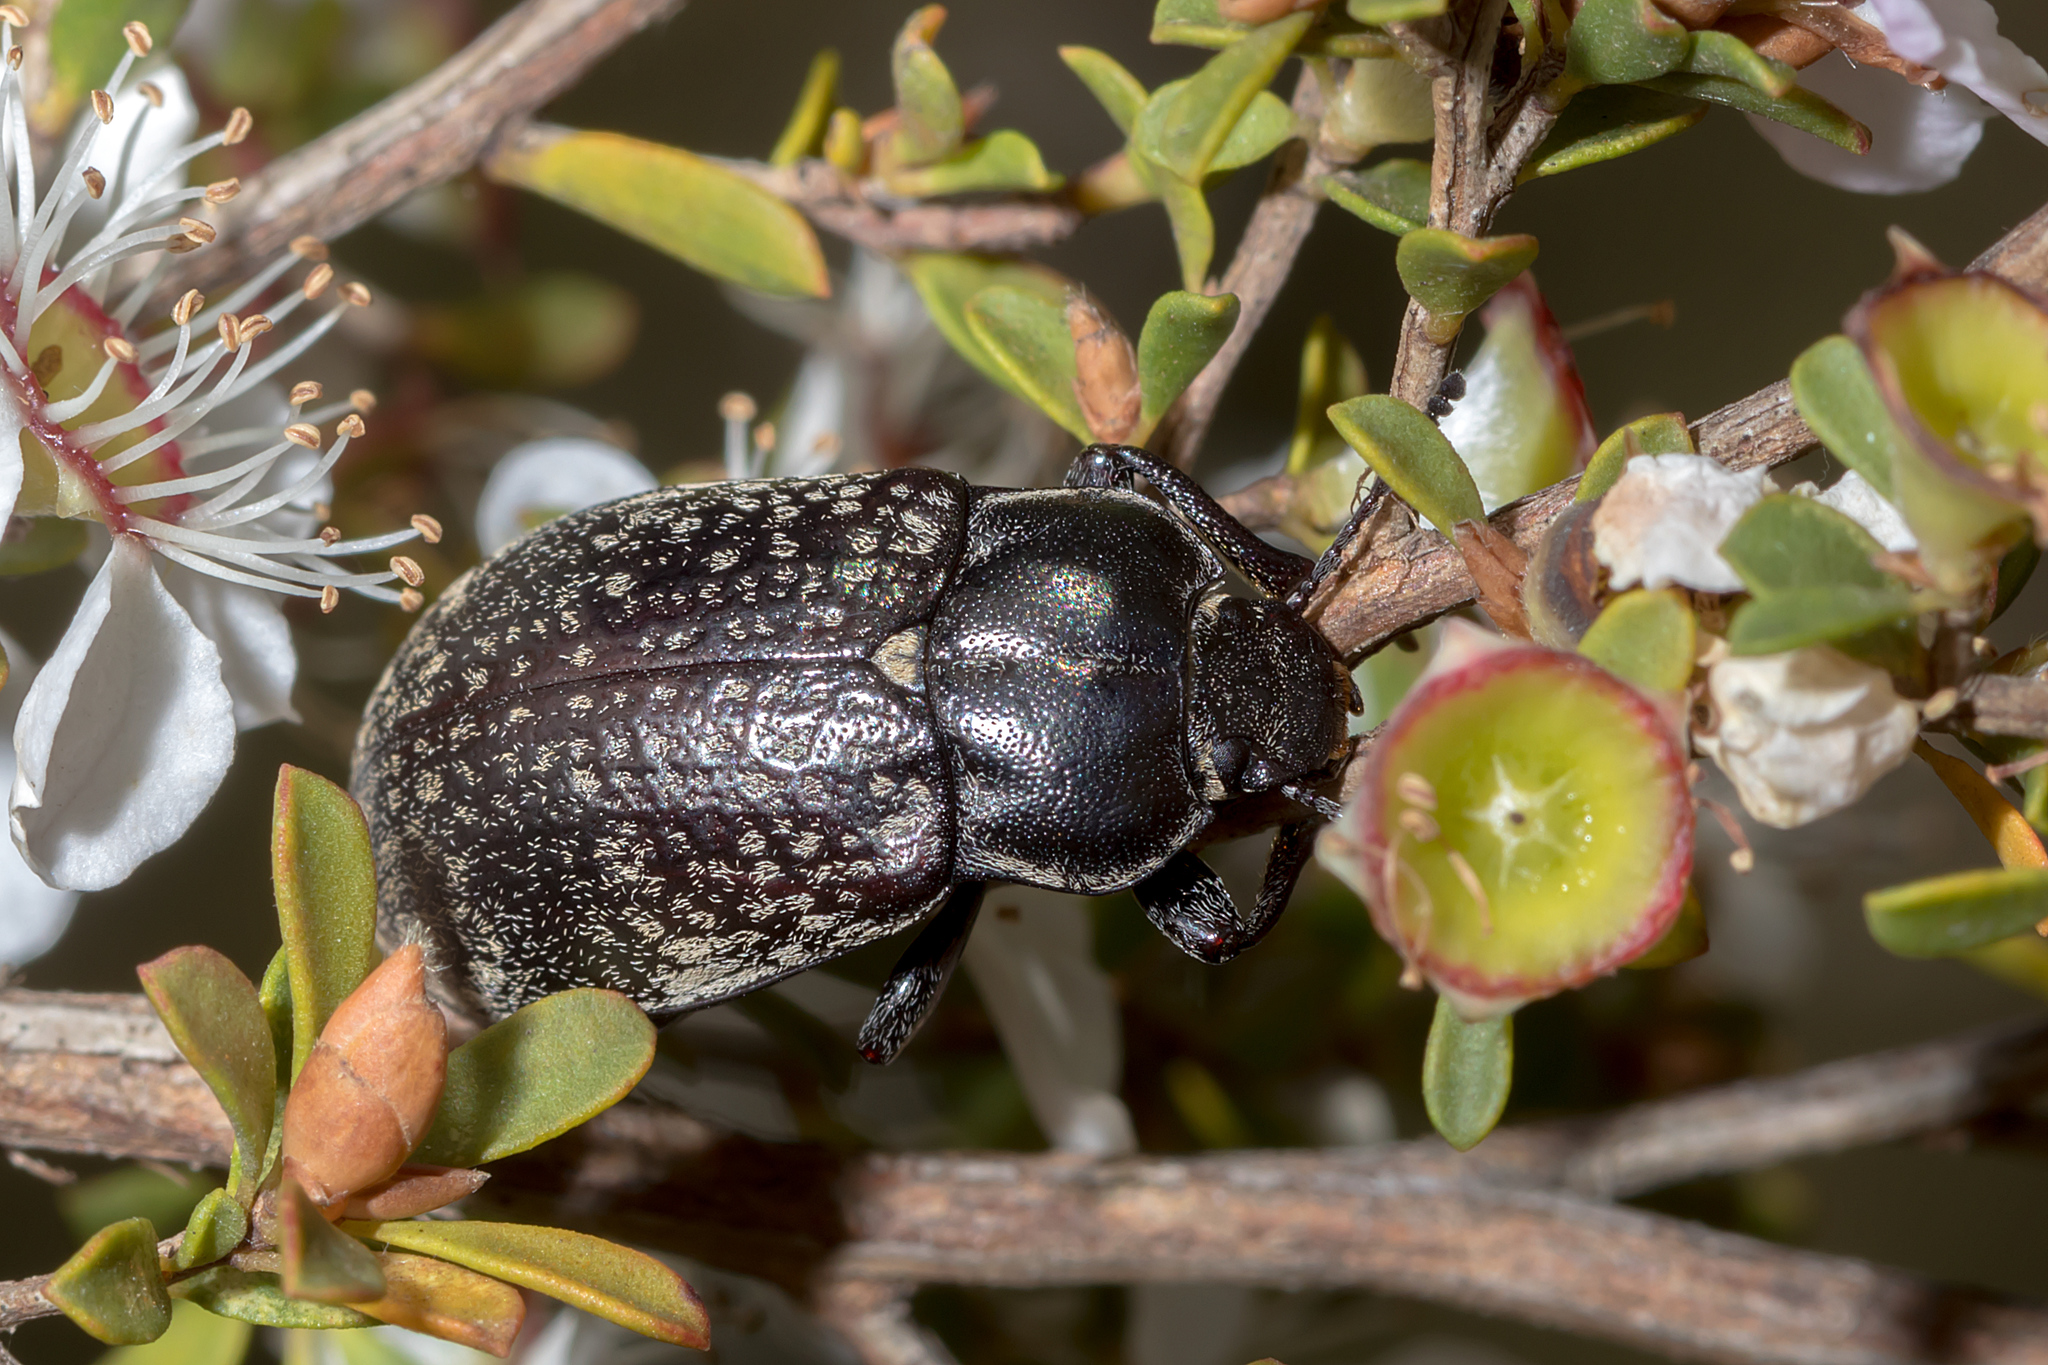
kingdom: Animalia
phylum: Arthropoda
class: Insecta
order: Coleoptera
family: Tenebrionidae
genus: Pachycoelia
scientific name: Pachycoelia
